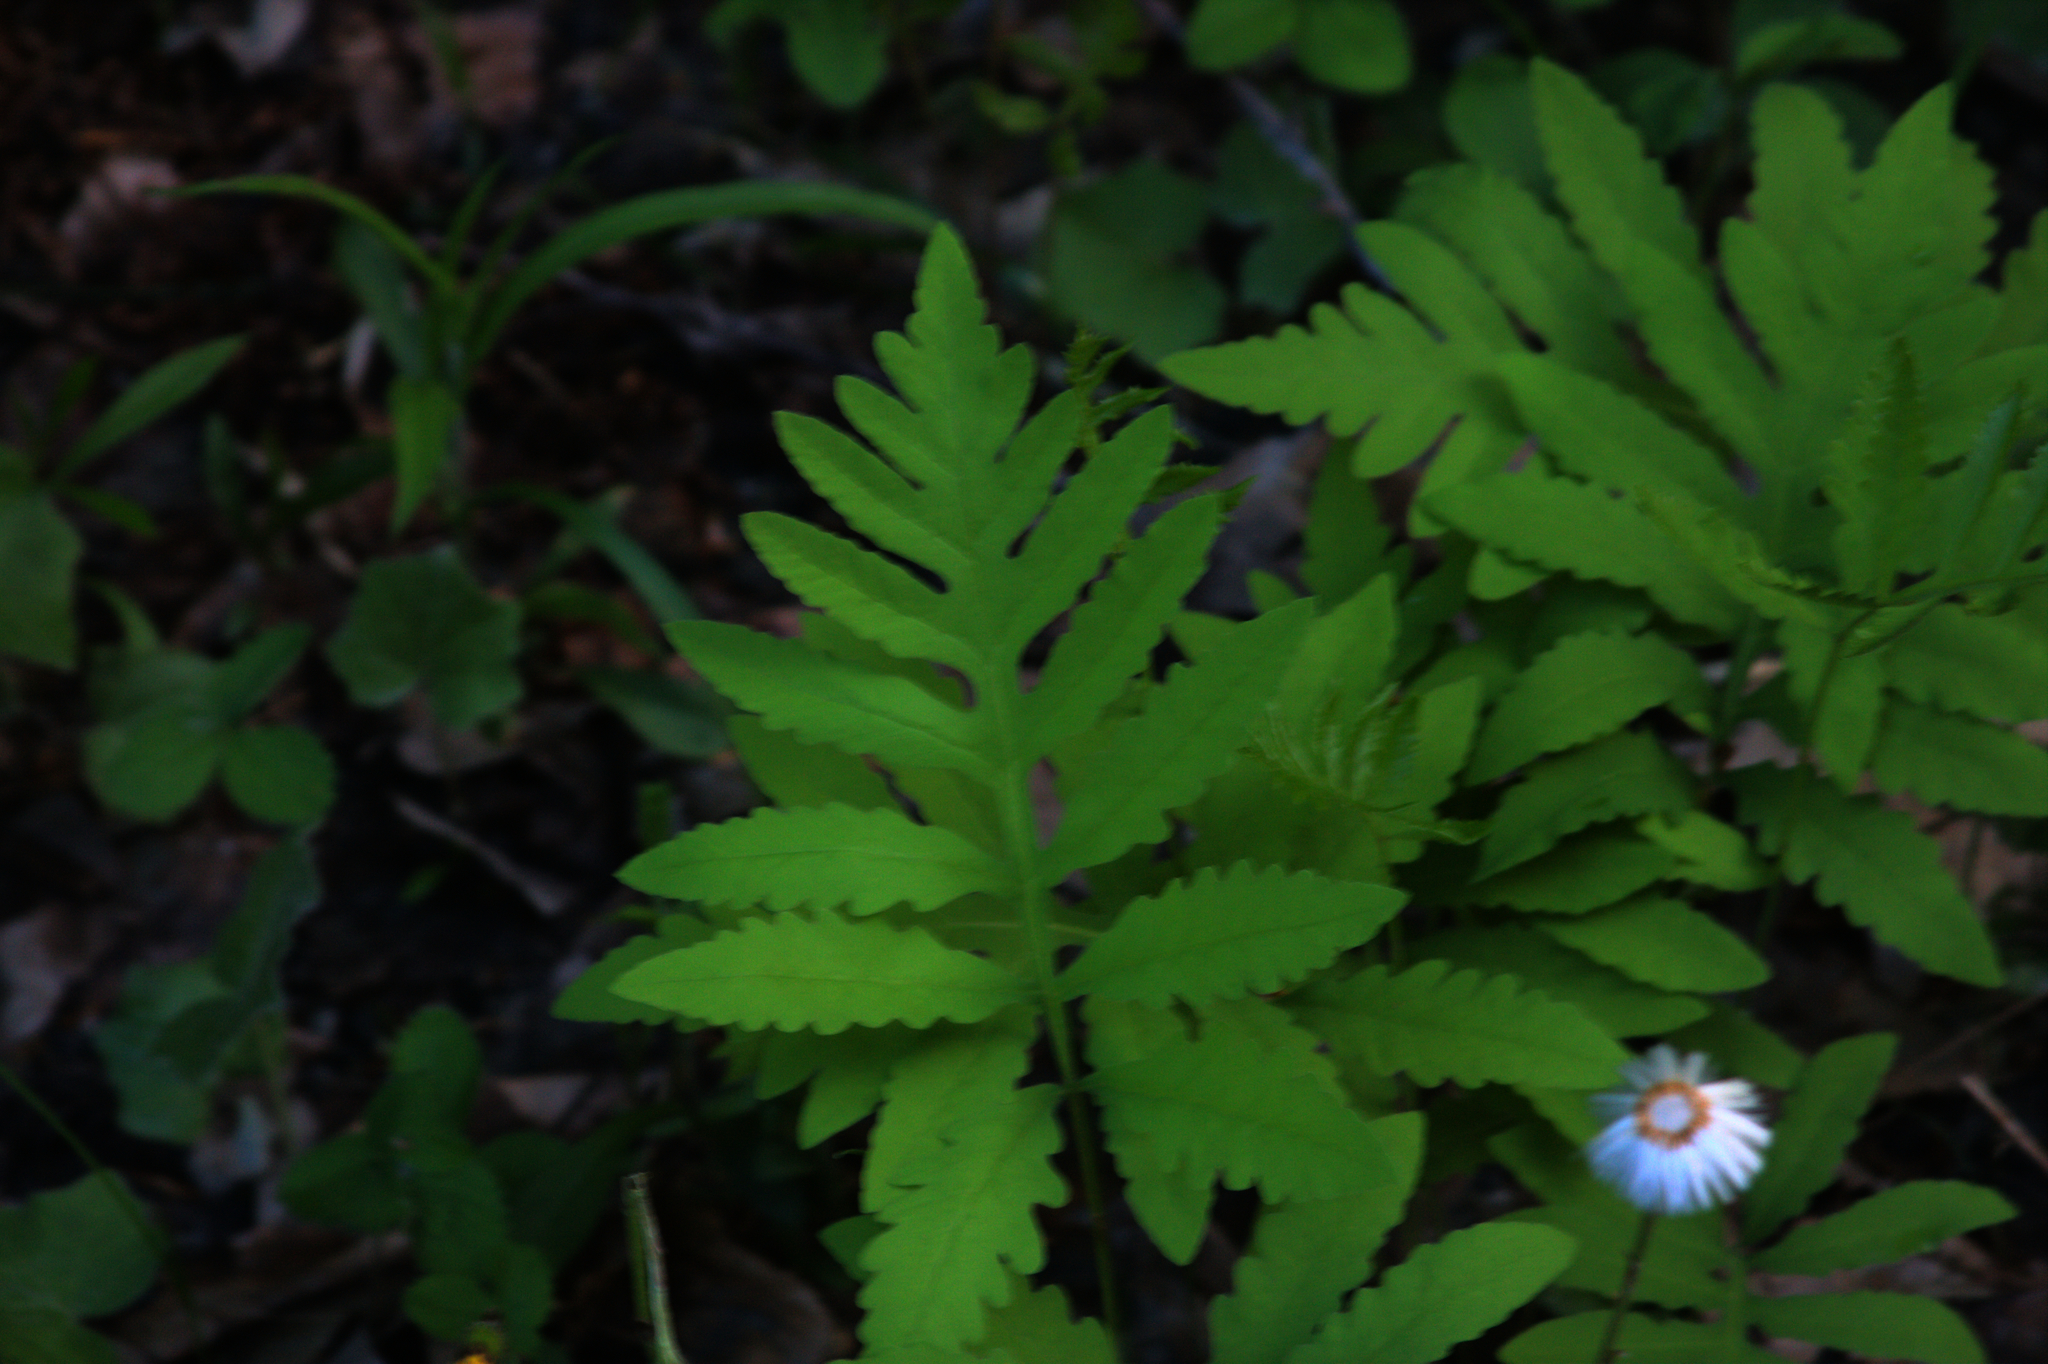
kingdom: Plantae
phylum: Tracheophyta
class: Polypodiopsida
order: Polypodiales
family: Onocleaceae
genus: Onoclea
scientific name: Onoclea sensibilis
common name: Sensitive fern
